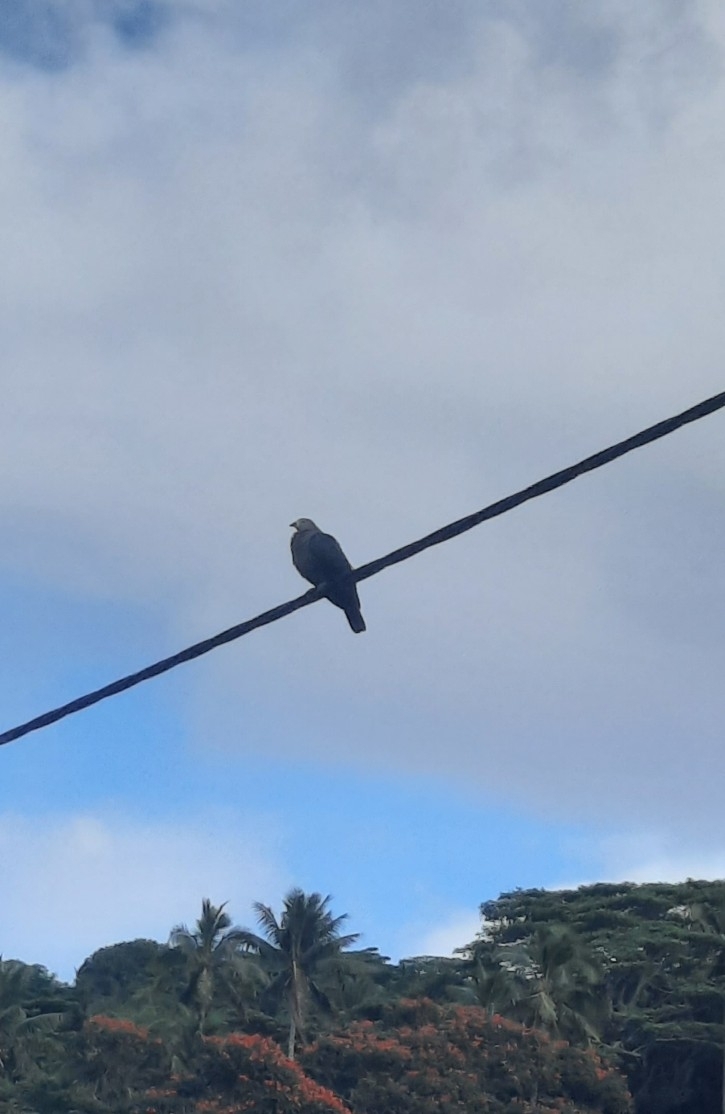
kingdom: Animalia
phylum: Chordata
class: Aves
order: Columbiformes
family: Columbidae
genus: Ducula
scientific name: Ducula pacifica
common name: Pacific imperial-pigeon
